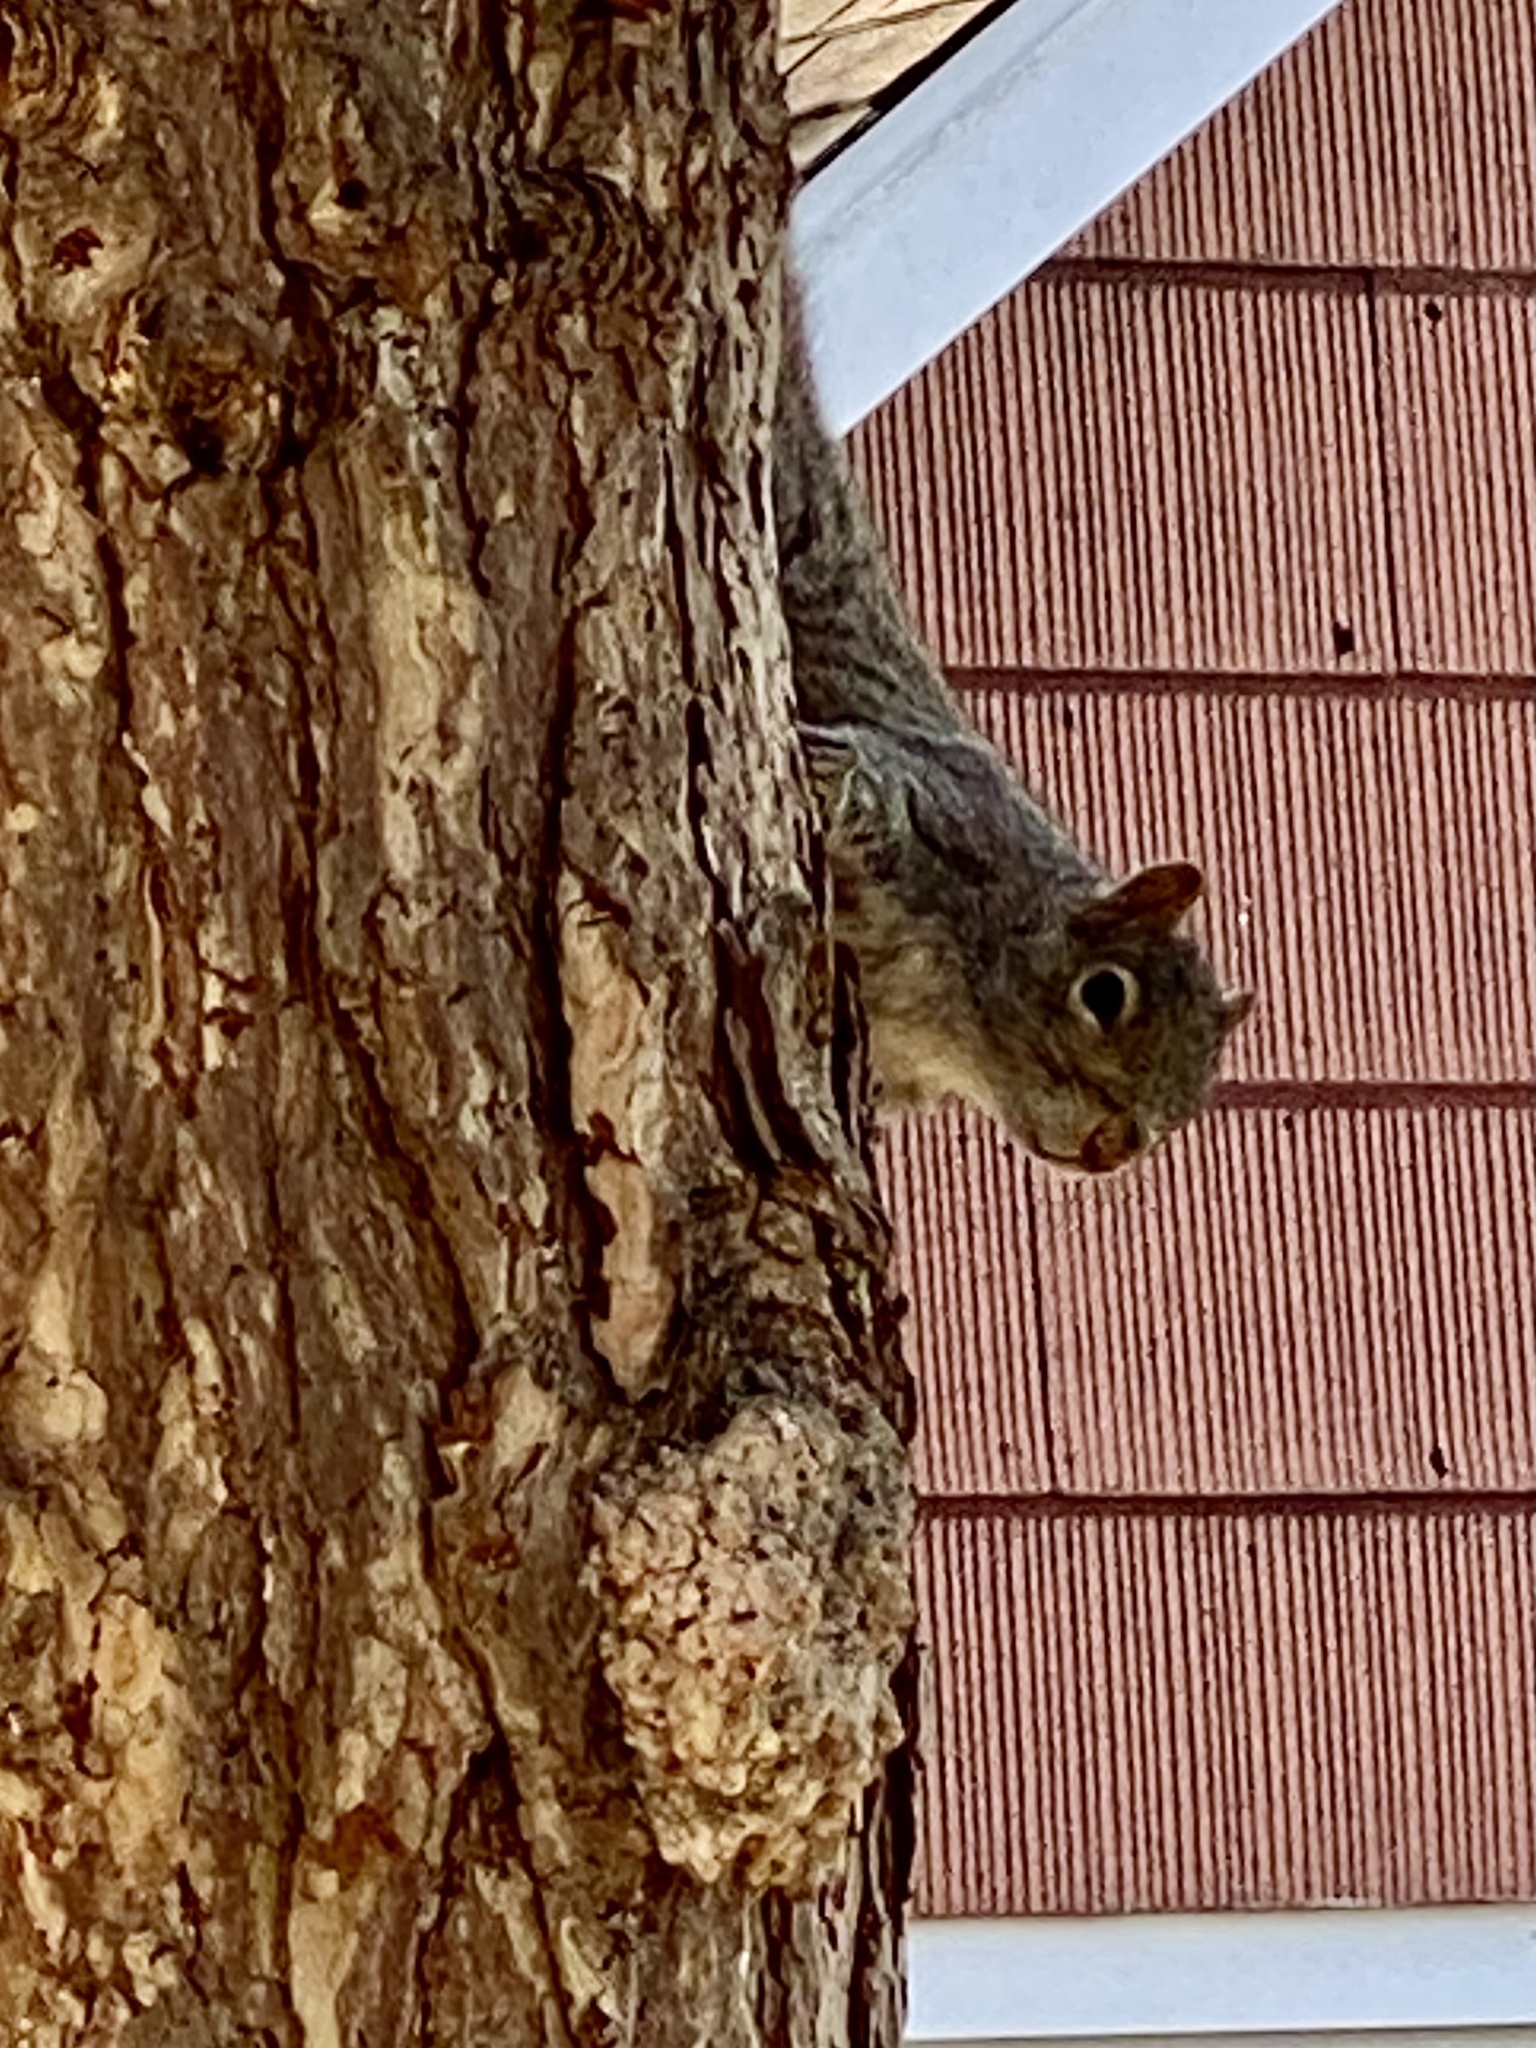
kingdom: Animalia
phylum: Chordata
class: Mammalia
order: Rodentia
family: Sciuridae
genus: Sciurus
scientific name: Sciurus carolinensis
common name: Eastern gray squirrel
